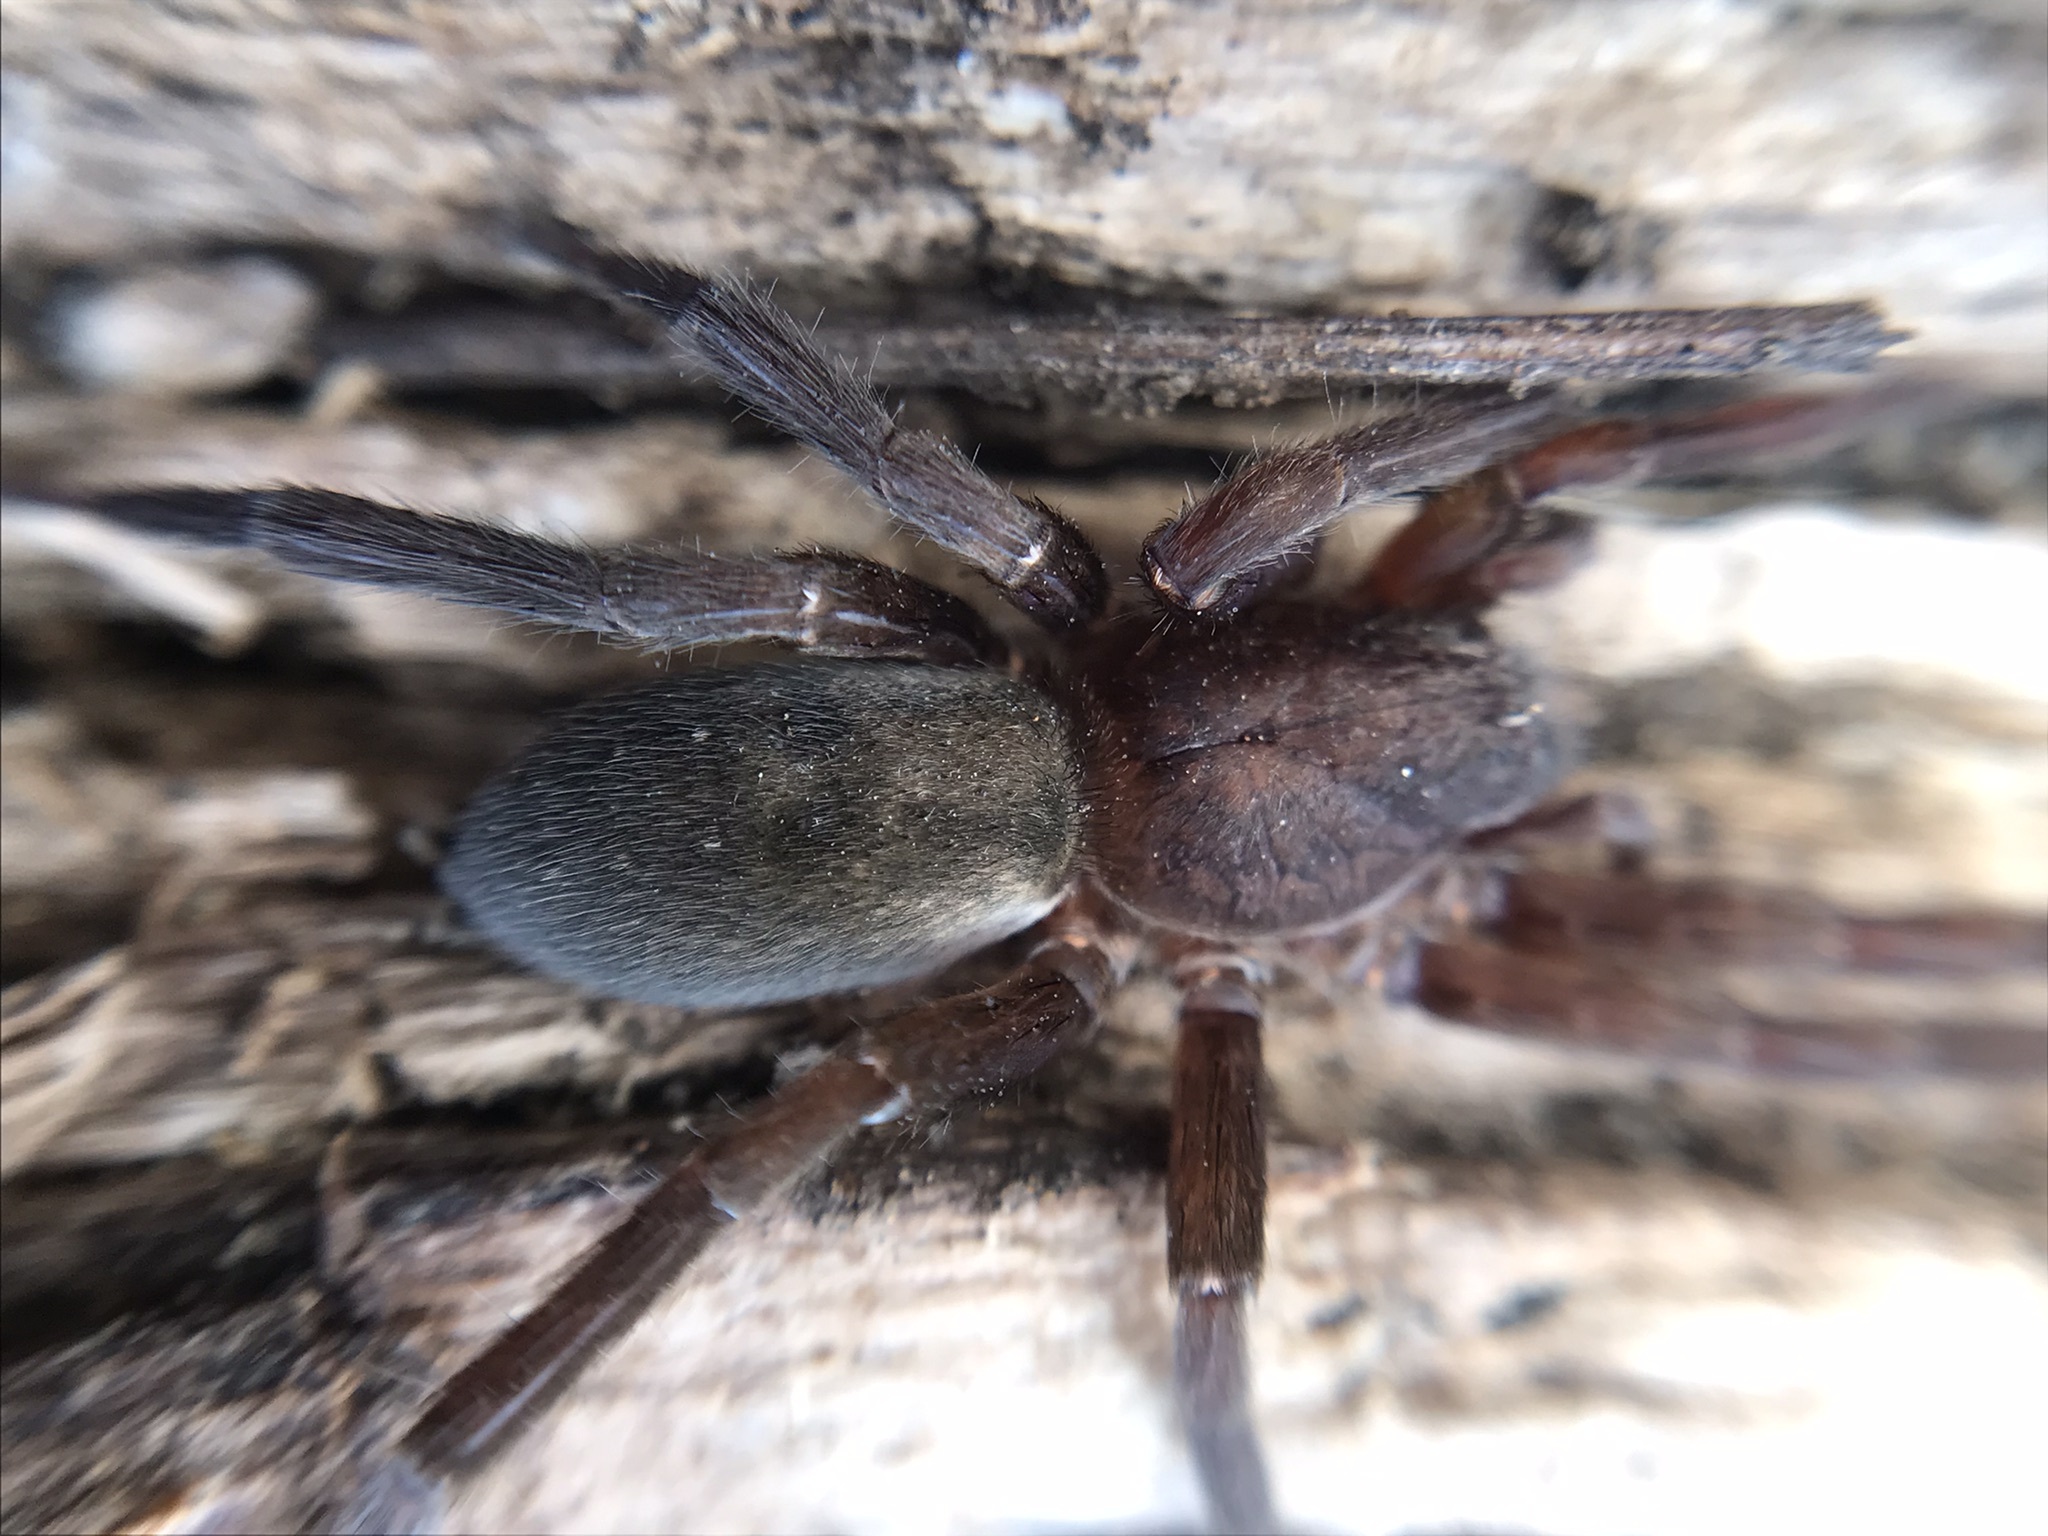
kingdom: Animalia
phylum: Arthropoda
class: Arachnida
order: Araneae
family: Ctenidae
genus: Asthenoctenus
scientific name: Asthenoctenus borellii
